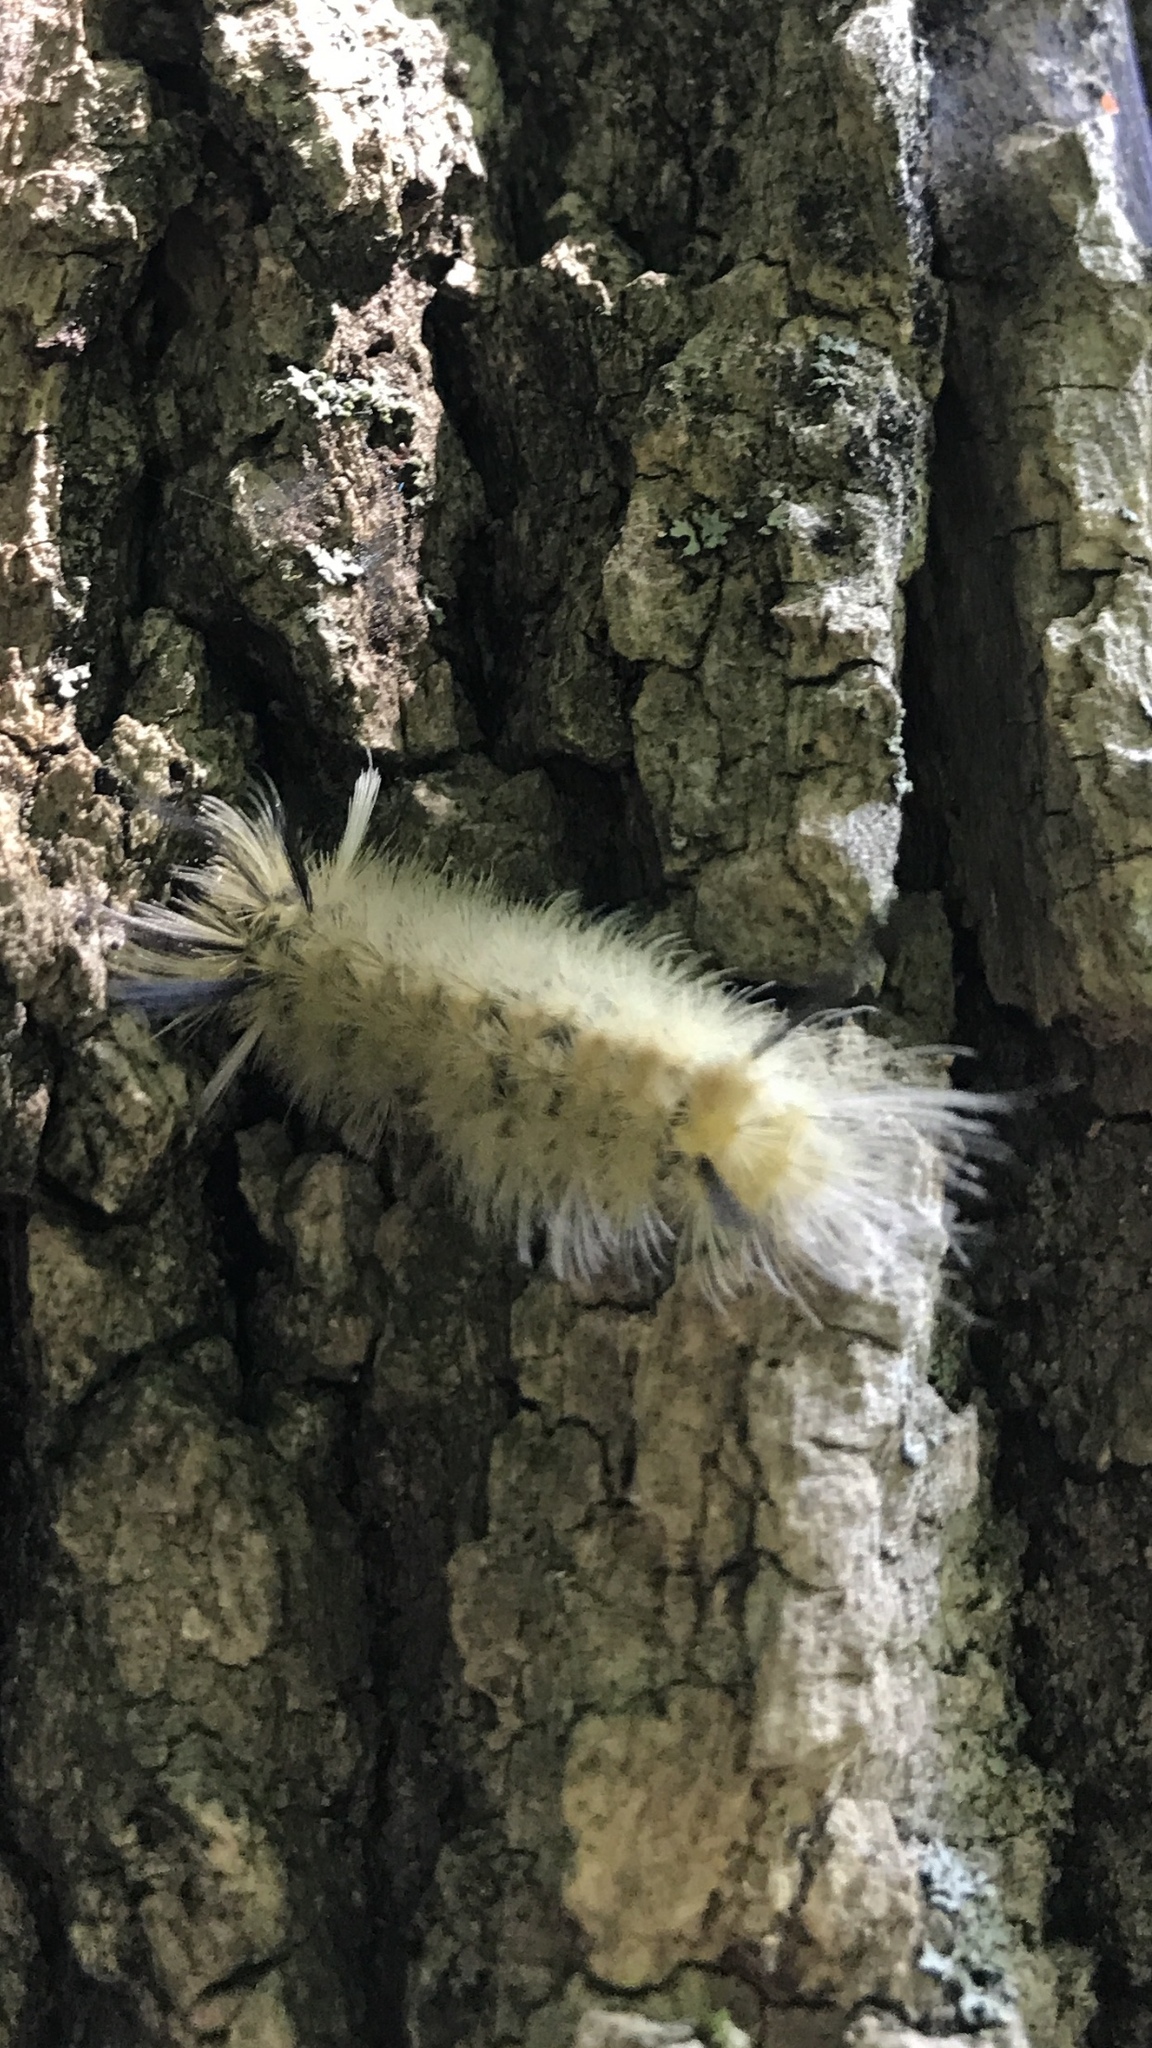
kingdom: Animalia
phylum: Arthropoda
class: Insecta
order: Lepidoptera
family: Erebidae
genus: Halysidota
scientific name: Halysidota tessellaris
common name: Banded tussock moth
